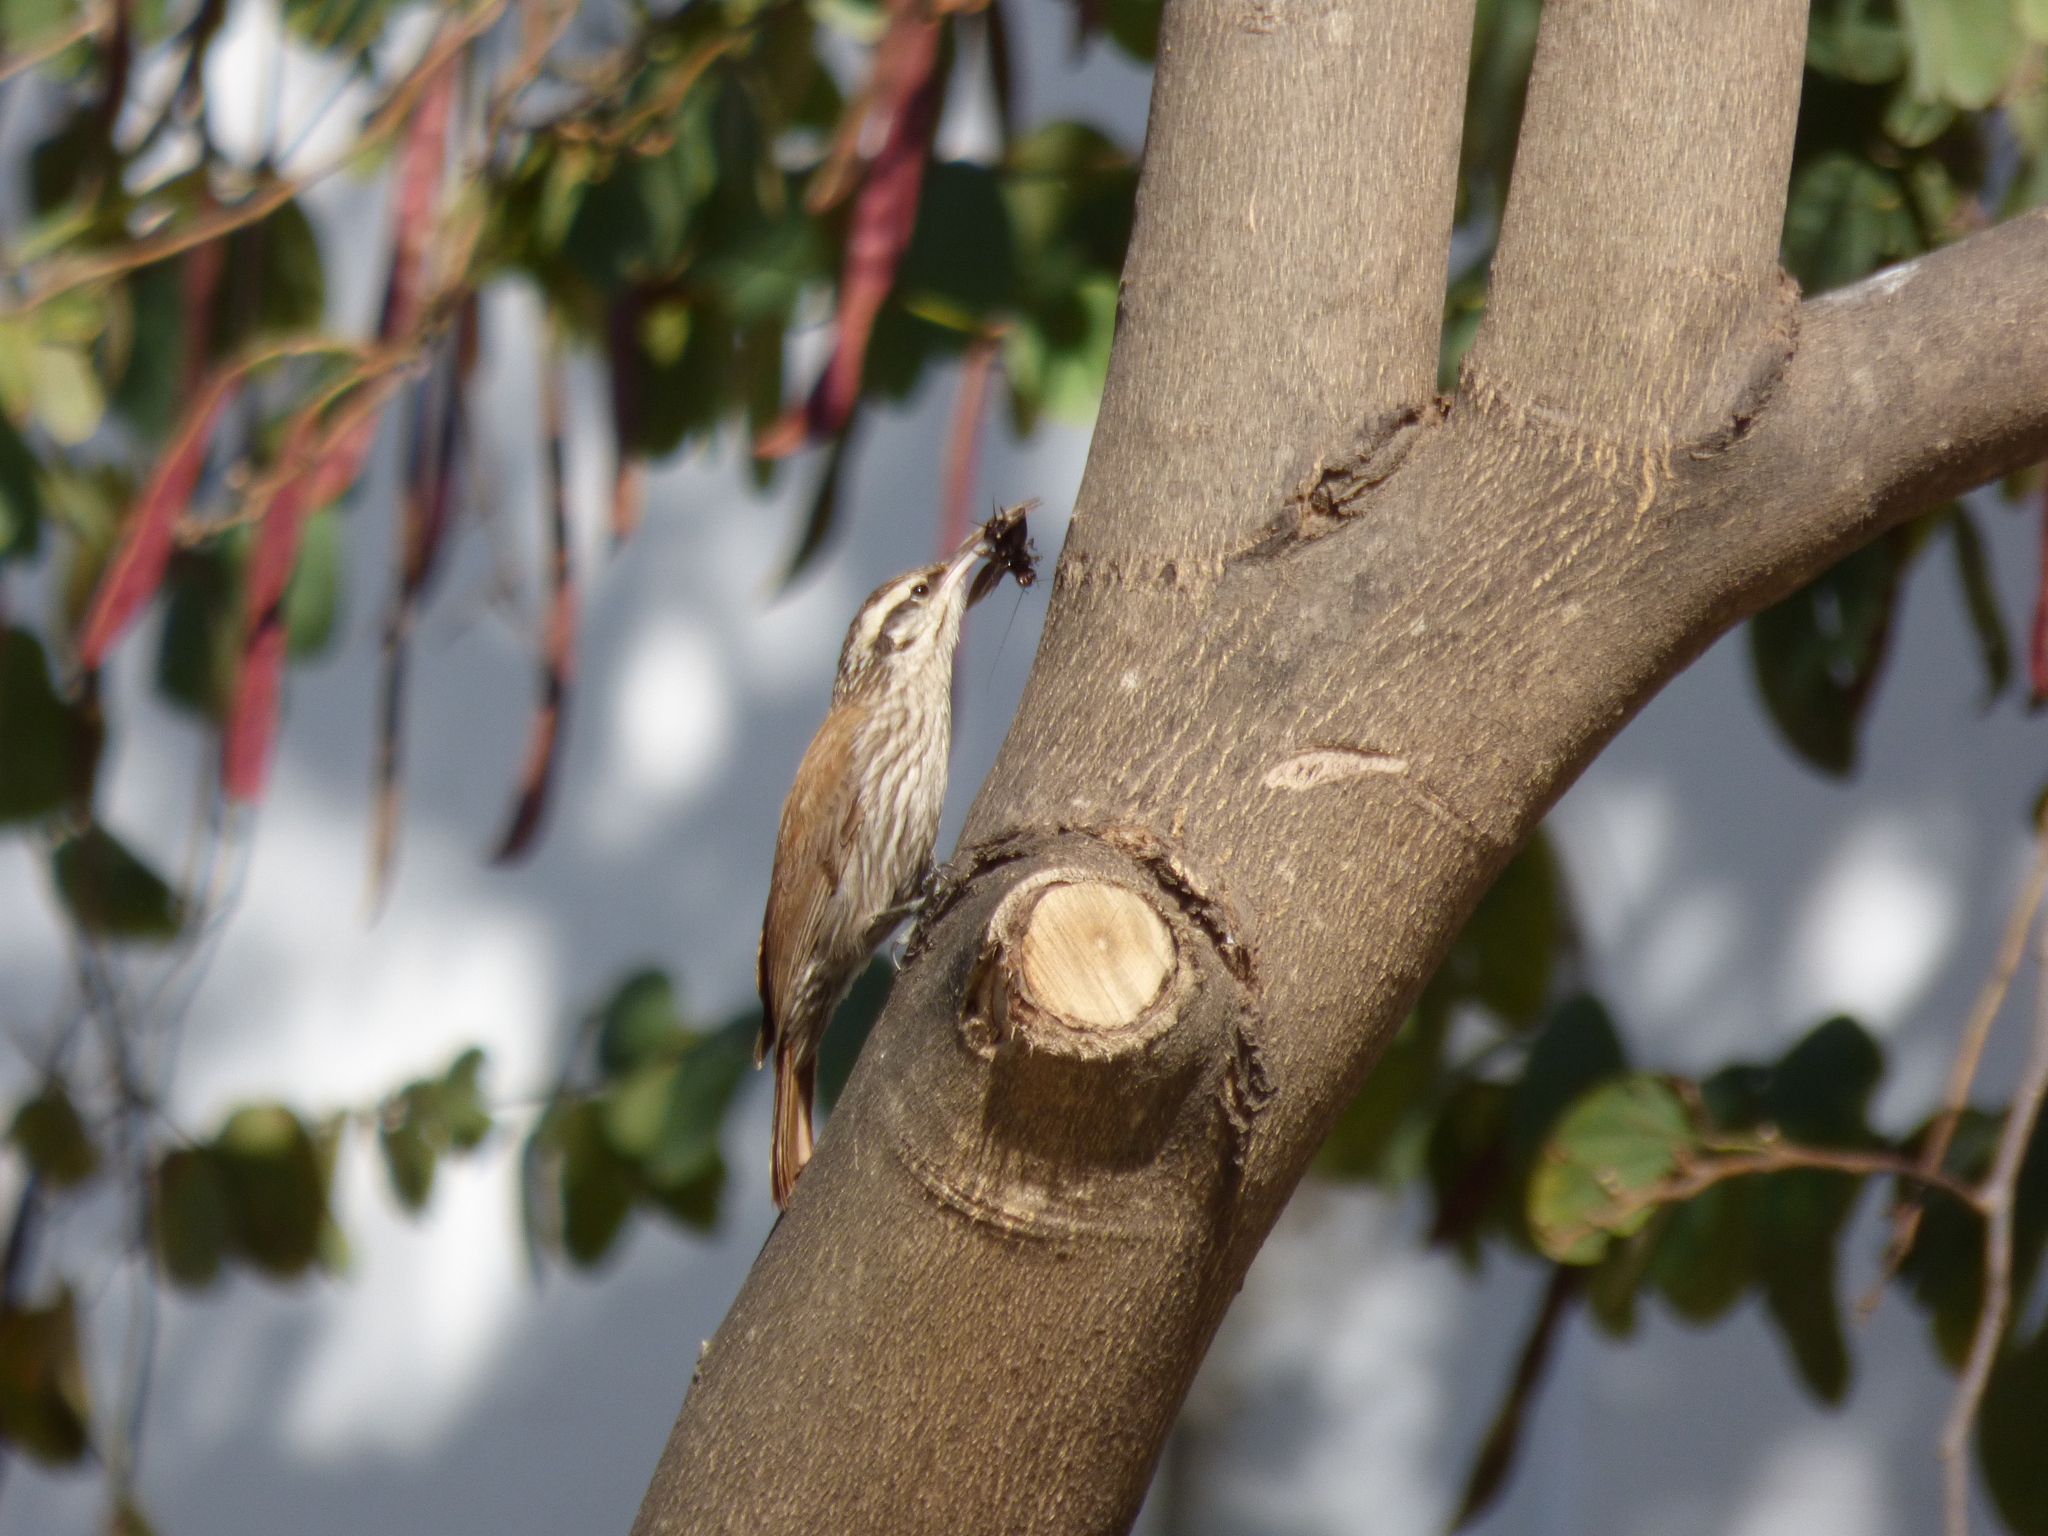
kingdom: Animalia
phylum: Chordata
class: Aves
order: Passeriformes
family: Furnariidae
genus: Lepidocolaptes
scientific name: Lepidocolaptes angustirostris
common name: Narrow-billed woodcreeper
